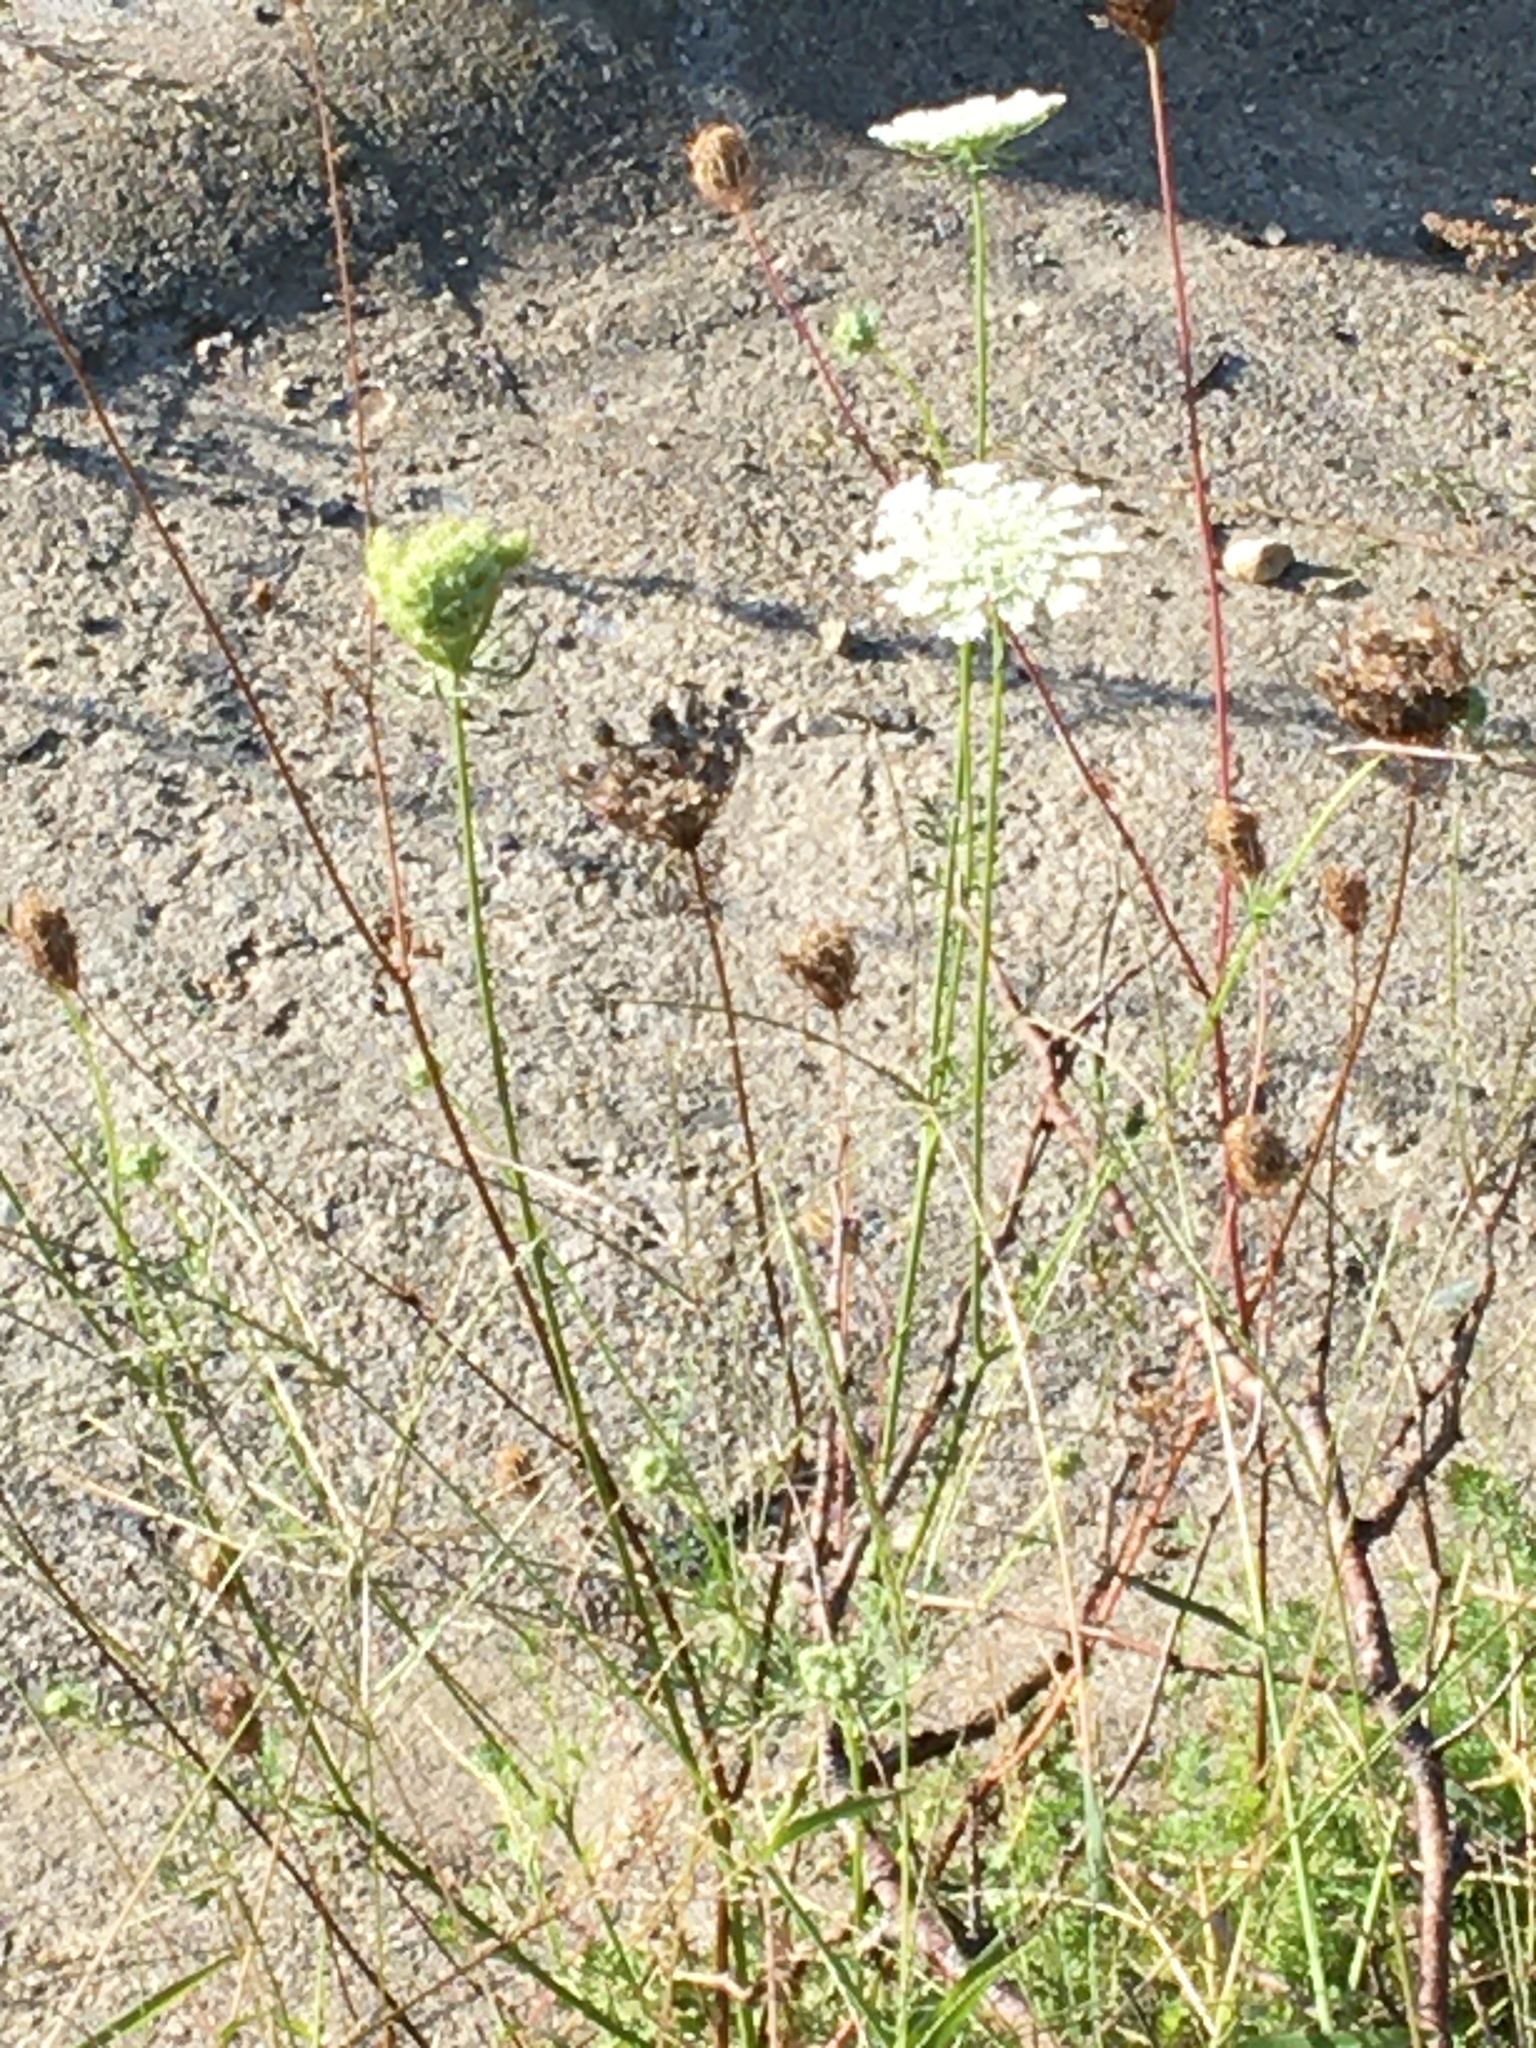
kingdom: Plantae
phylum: Tracheophyta
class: Magnoliopsida
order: Apiales
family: Apiaceae
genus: Daucus
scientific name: Daucus carota
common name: Wild carrot
